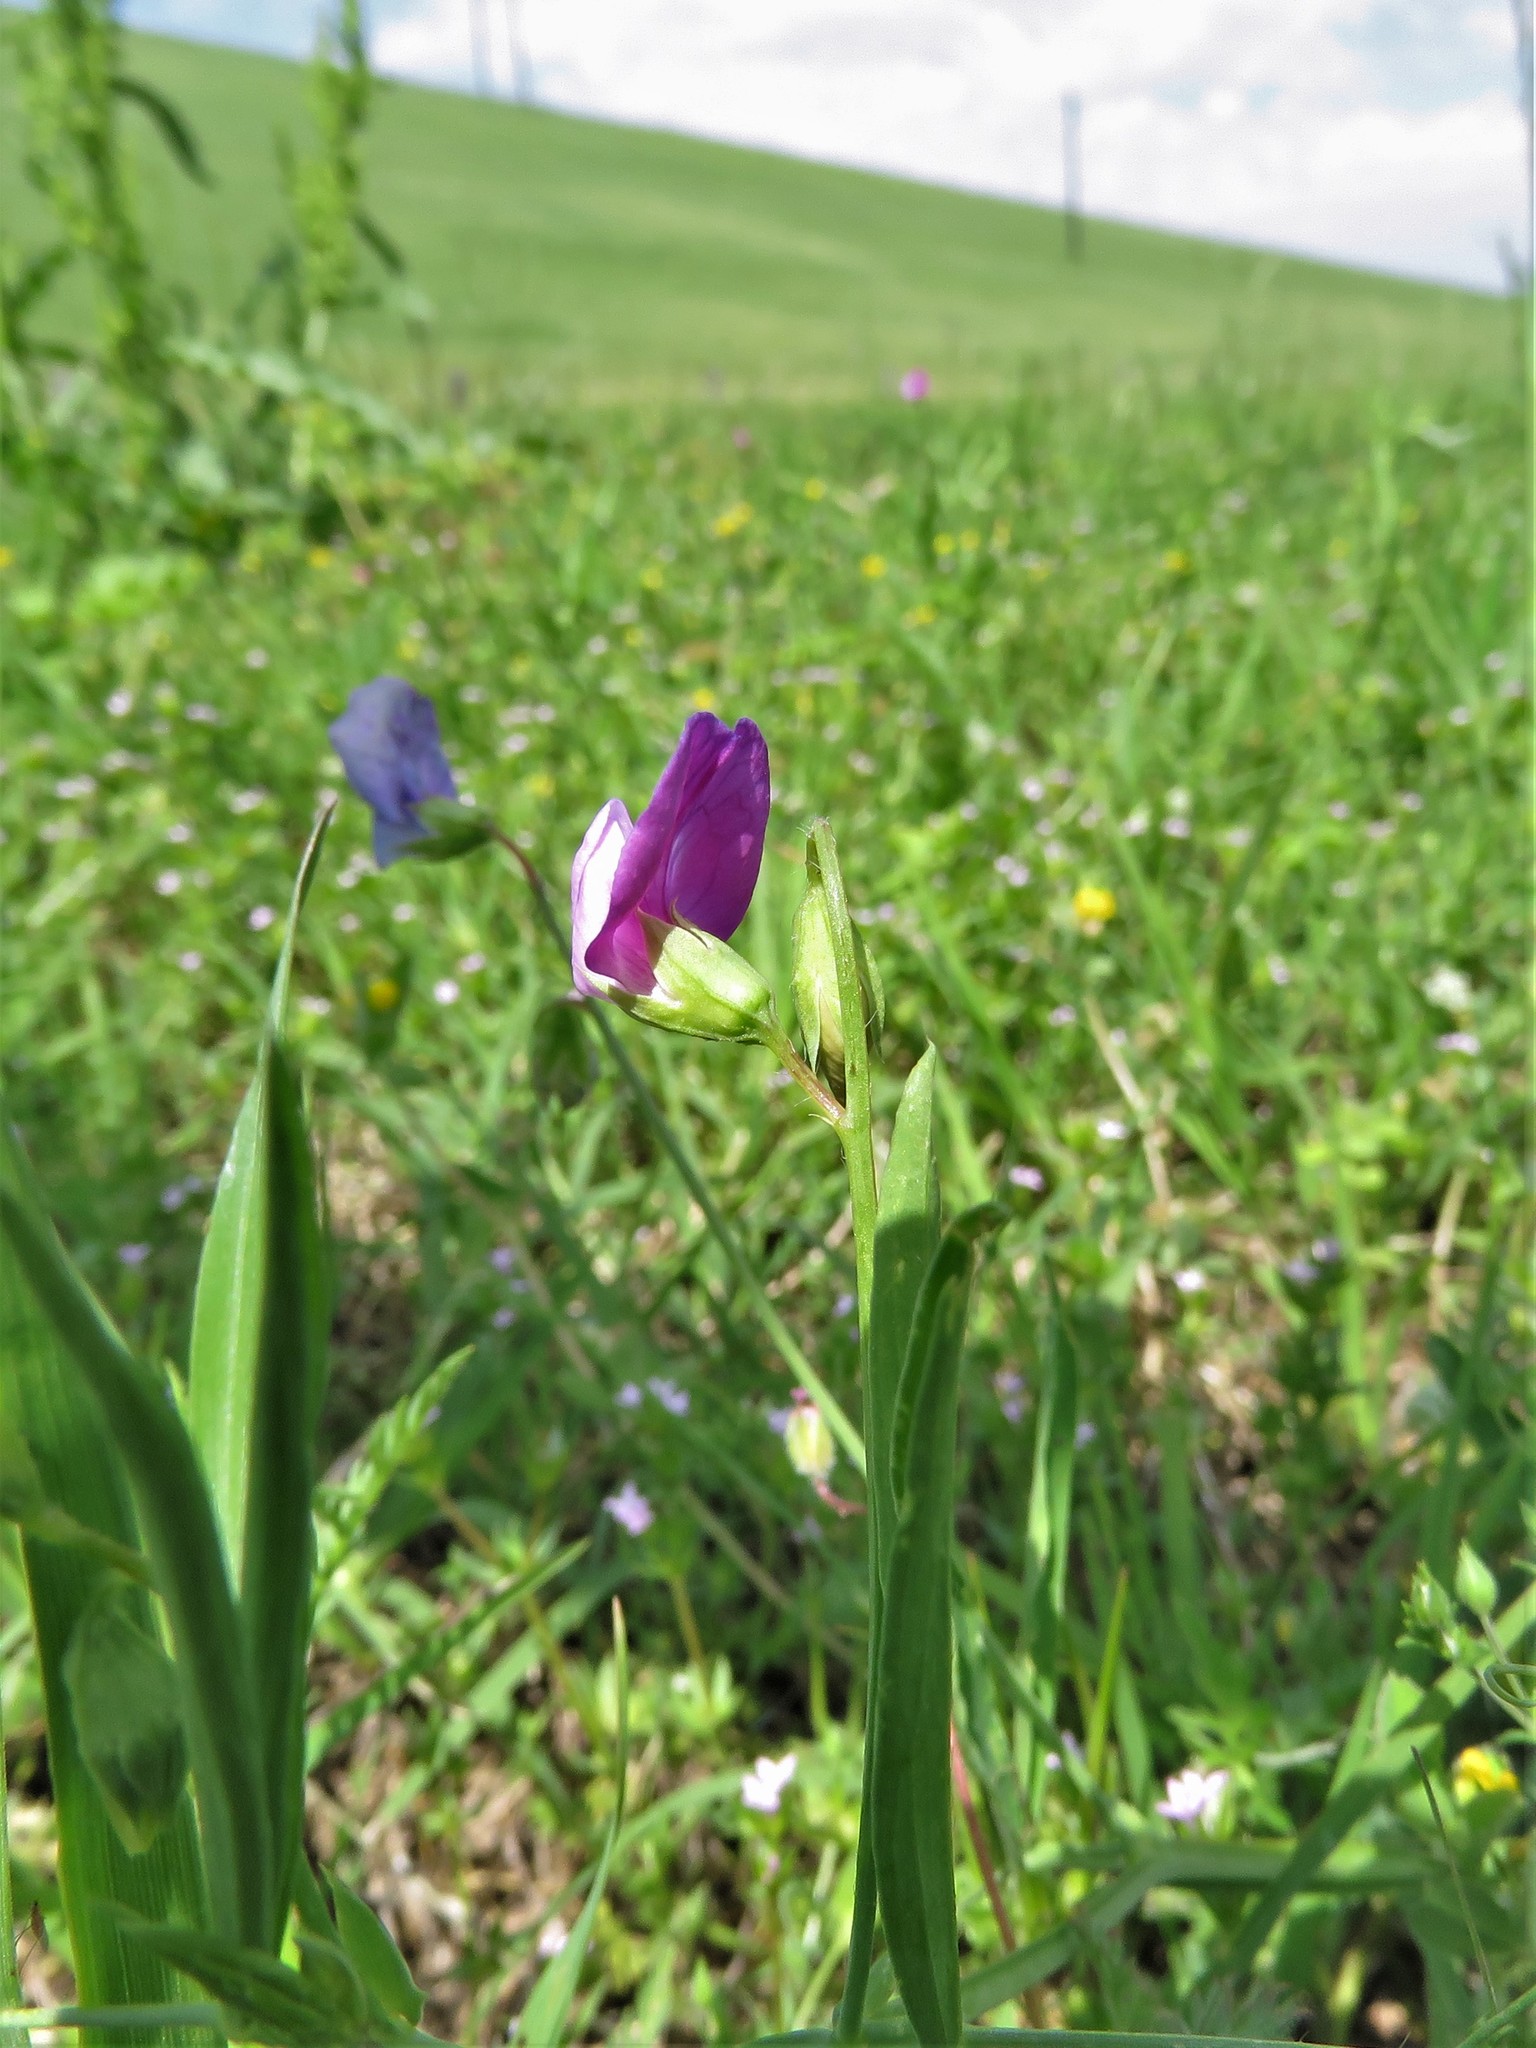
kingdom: Plantae
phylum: Tracheophyta
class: Magnoliopsida
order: Fabales
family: Fabaceae
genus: Lathyrus
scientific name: Lathyrus hirsutus
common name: Hairy vetchling
